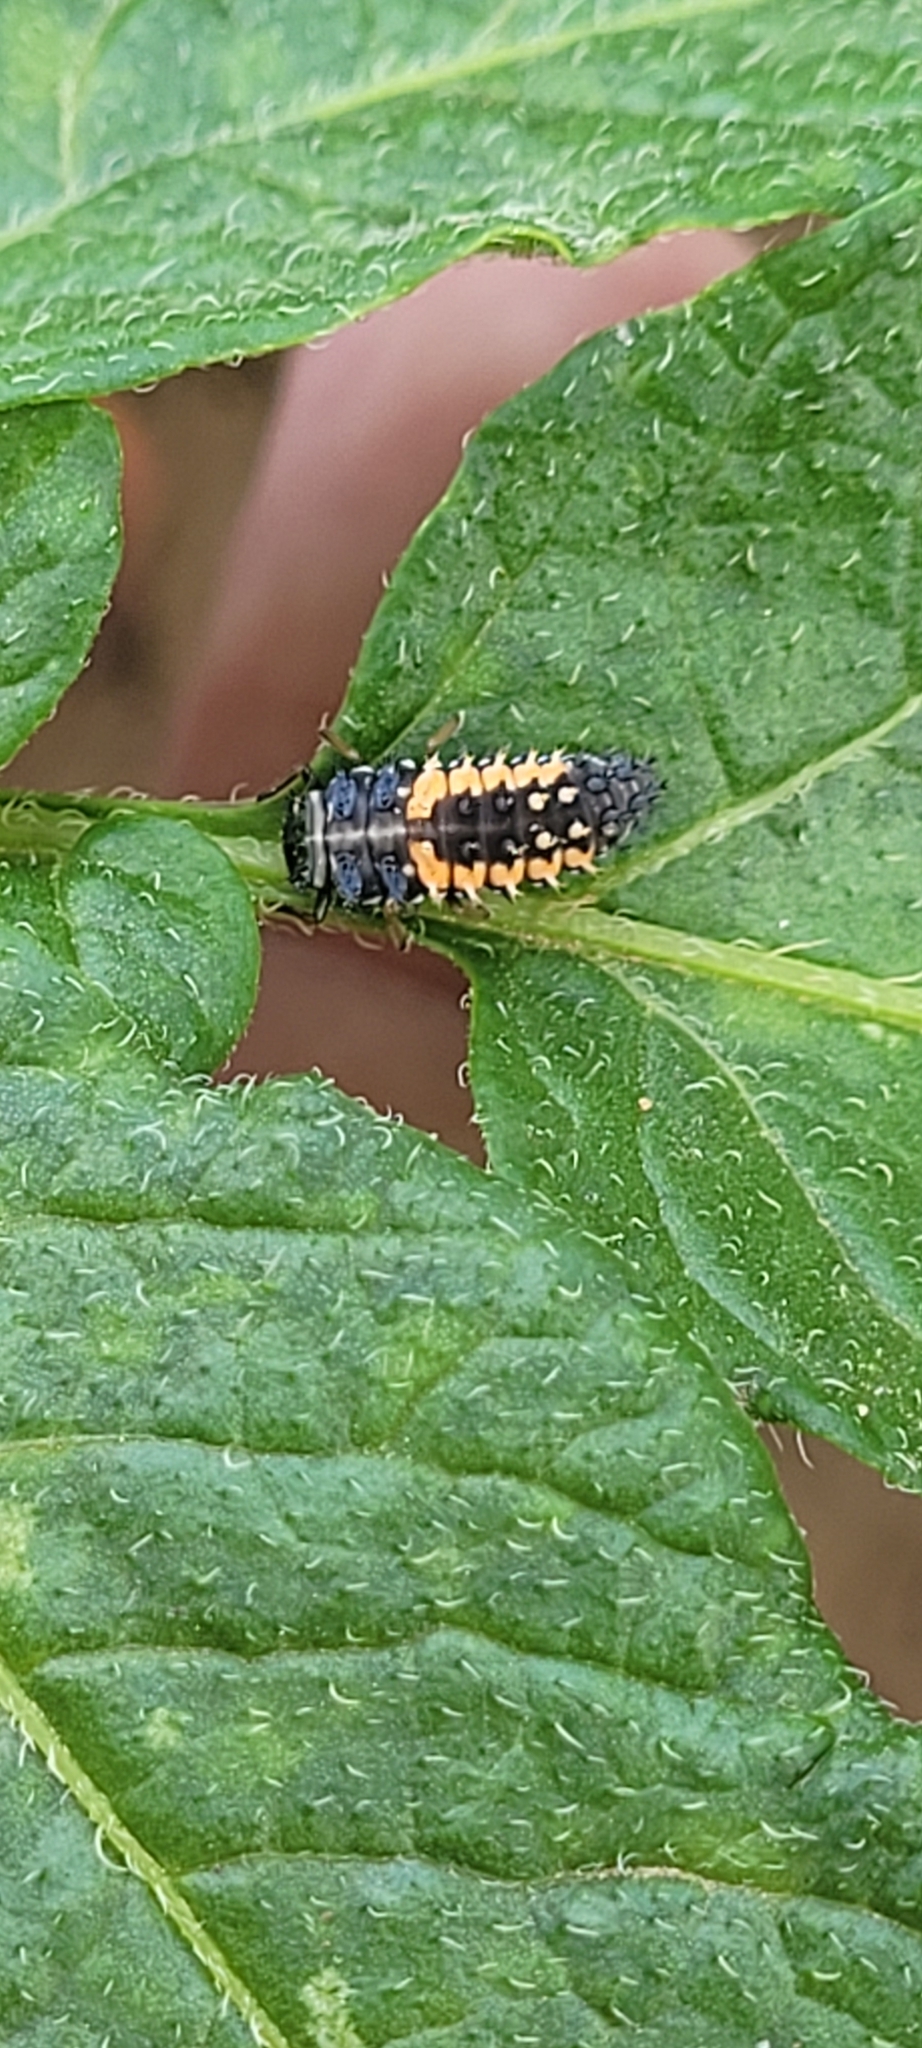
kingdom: Animalia
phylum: Arthropoda
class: Insecta
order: Coleoptera
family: Coccinellidae
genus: Harmonia
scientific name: Harmonia axyridis
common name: Harlequin ladybird
